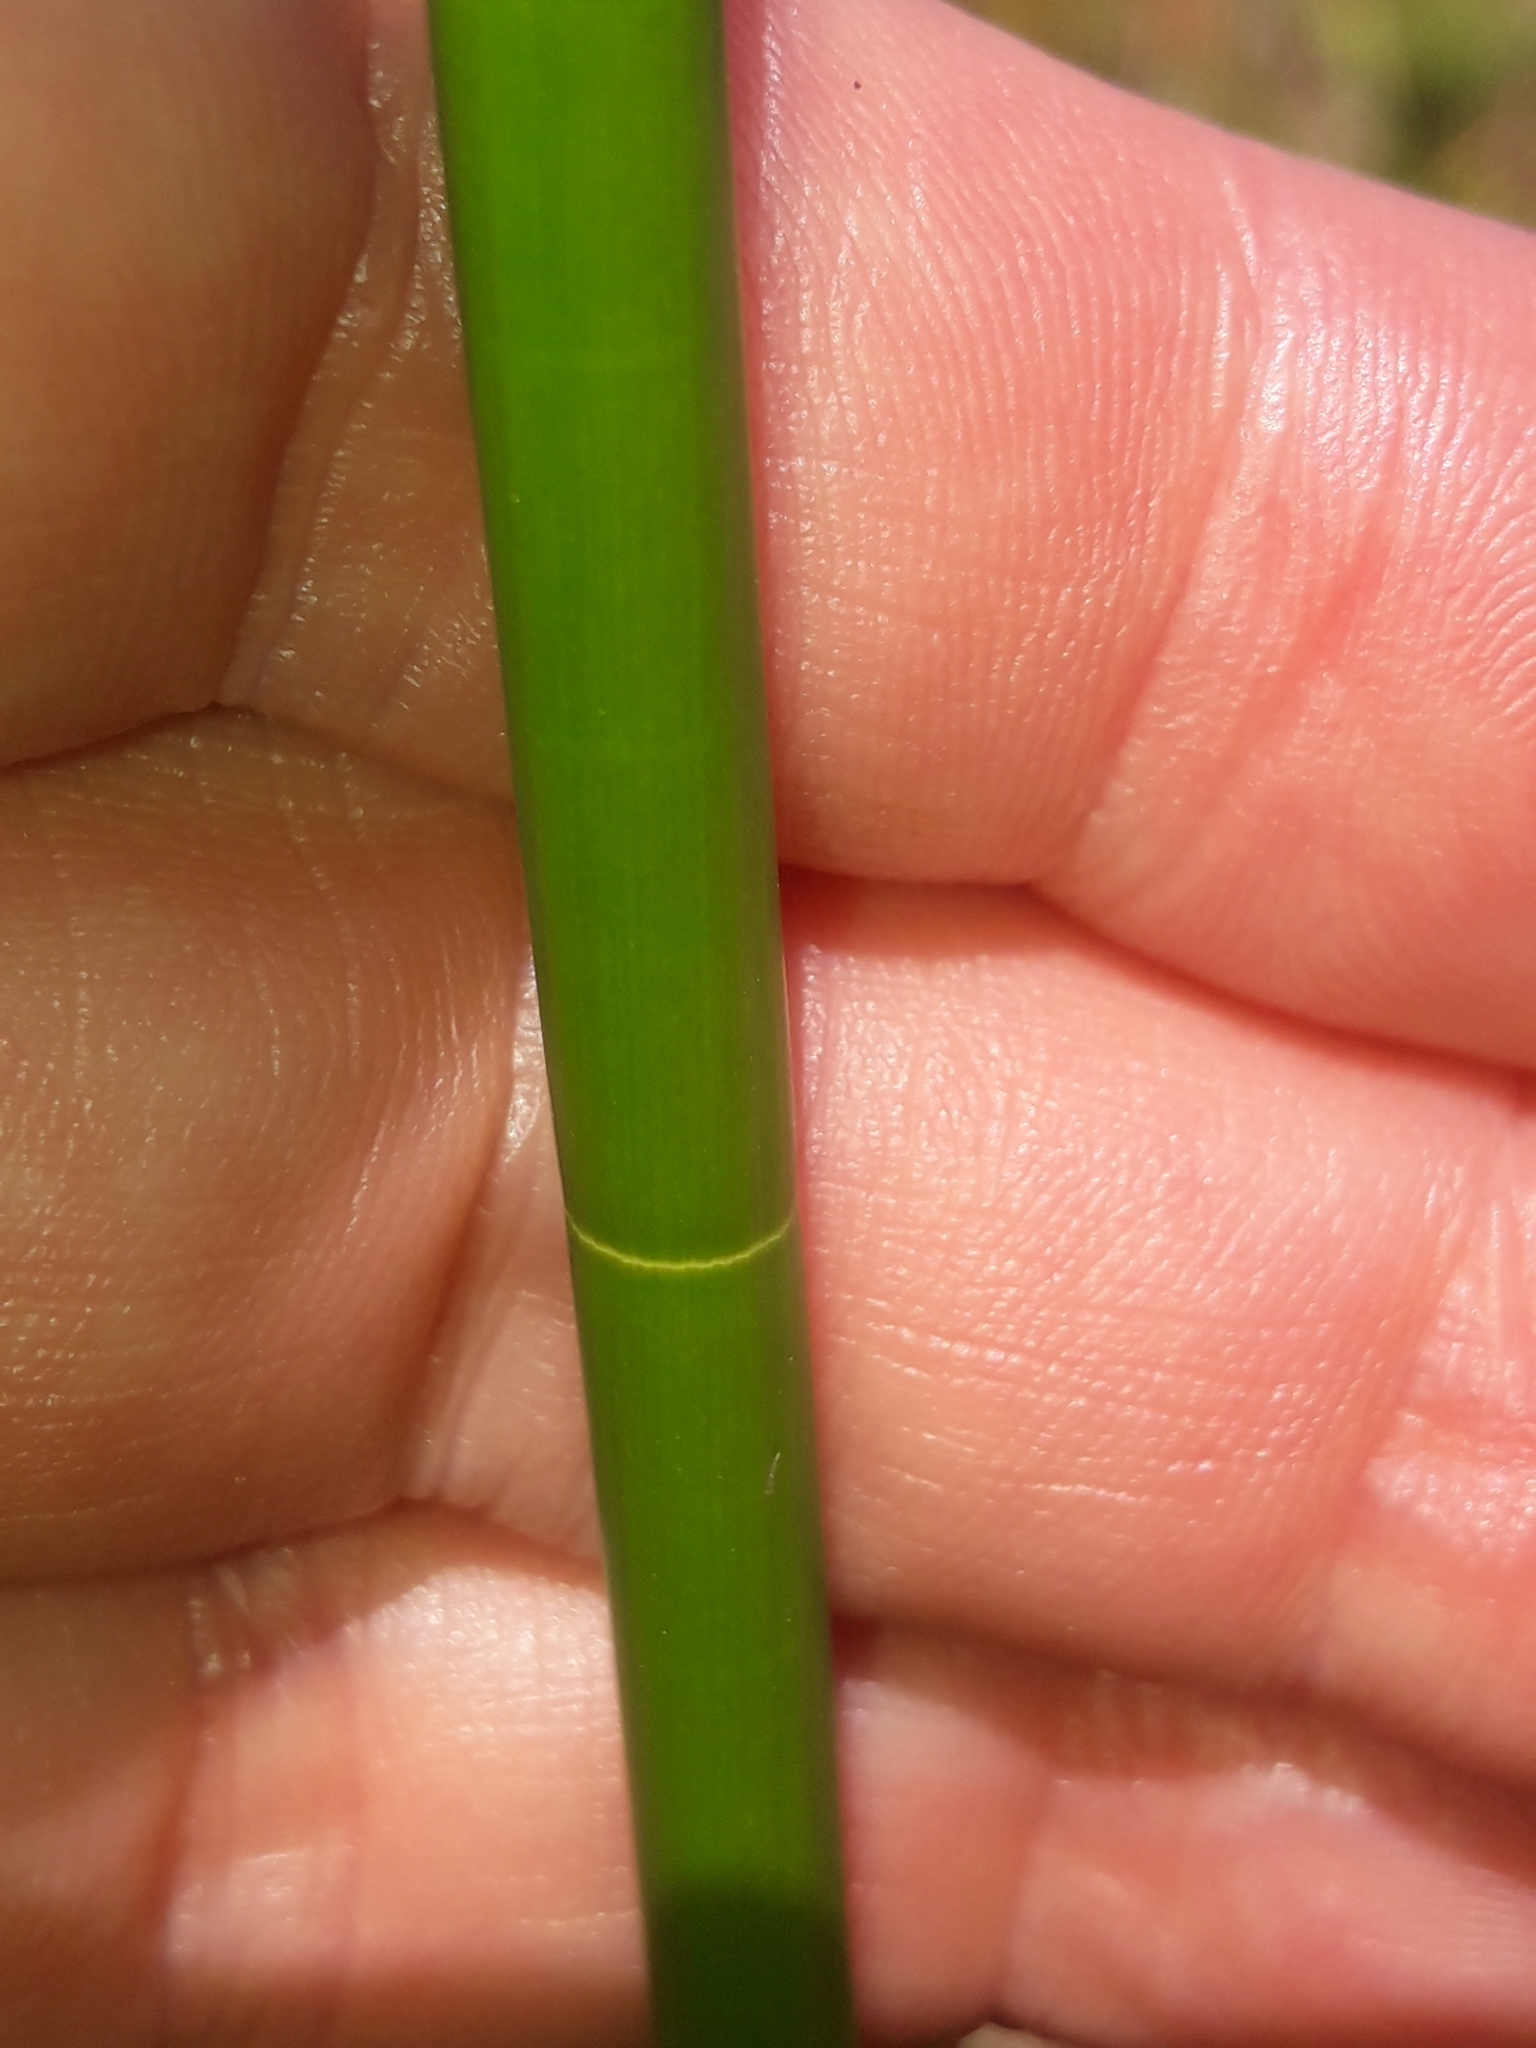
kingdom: Plantae
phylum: Tracheophyta
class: Liliopsida
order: Poales
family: Cyperaceae
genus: Eleocharis
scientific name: Eleocharis sphacelata
